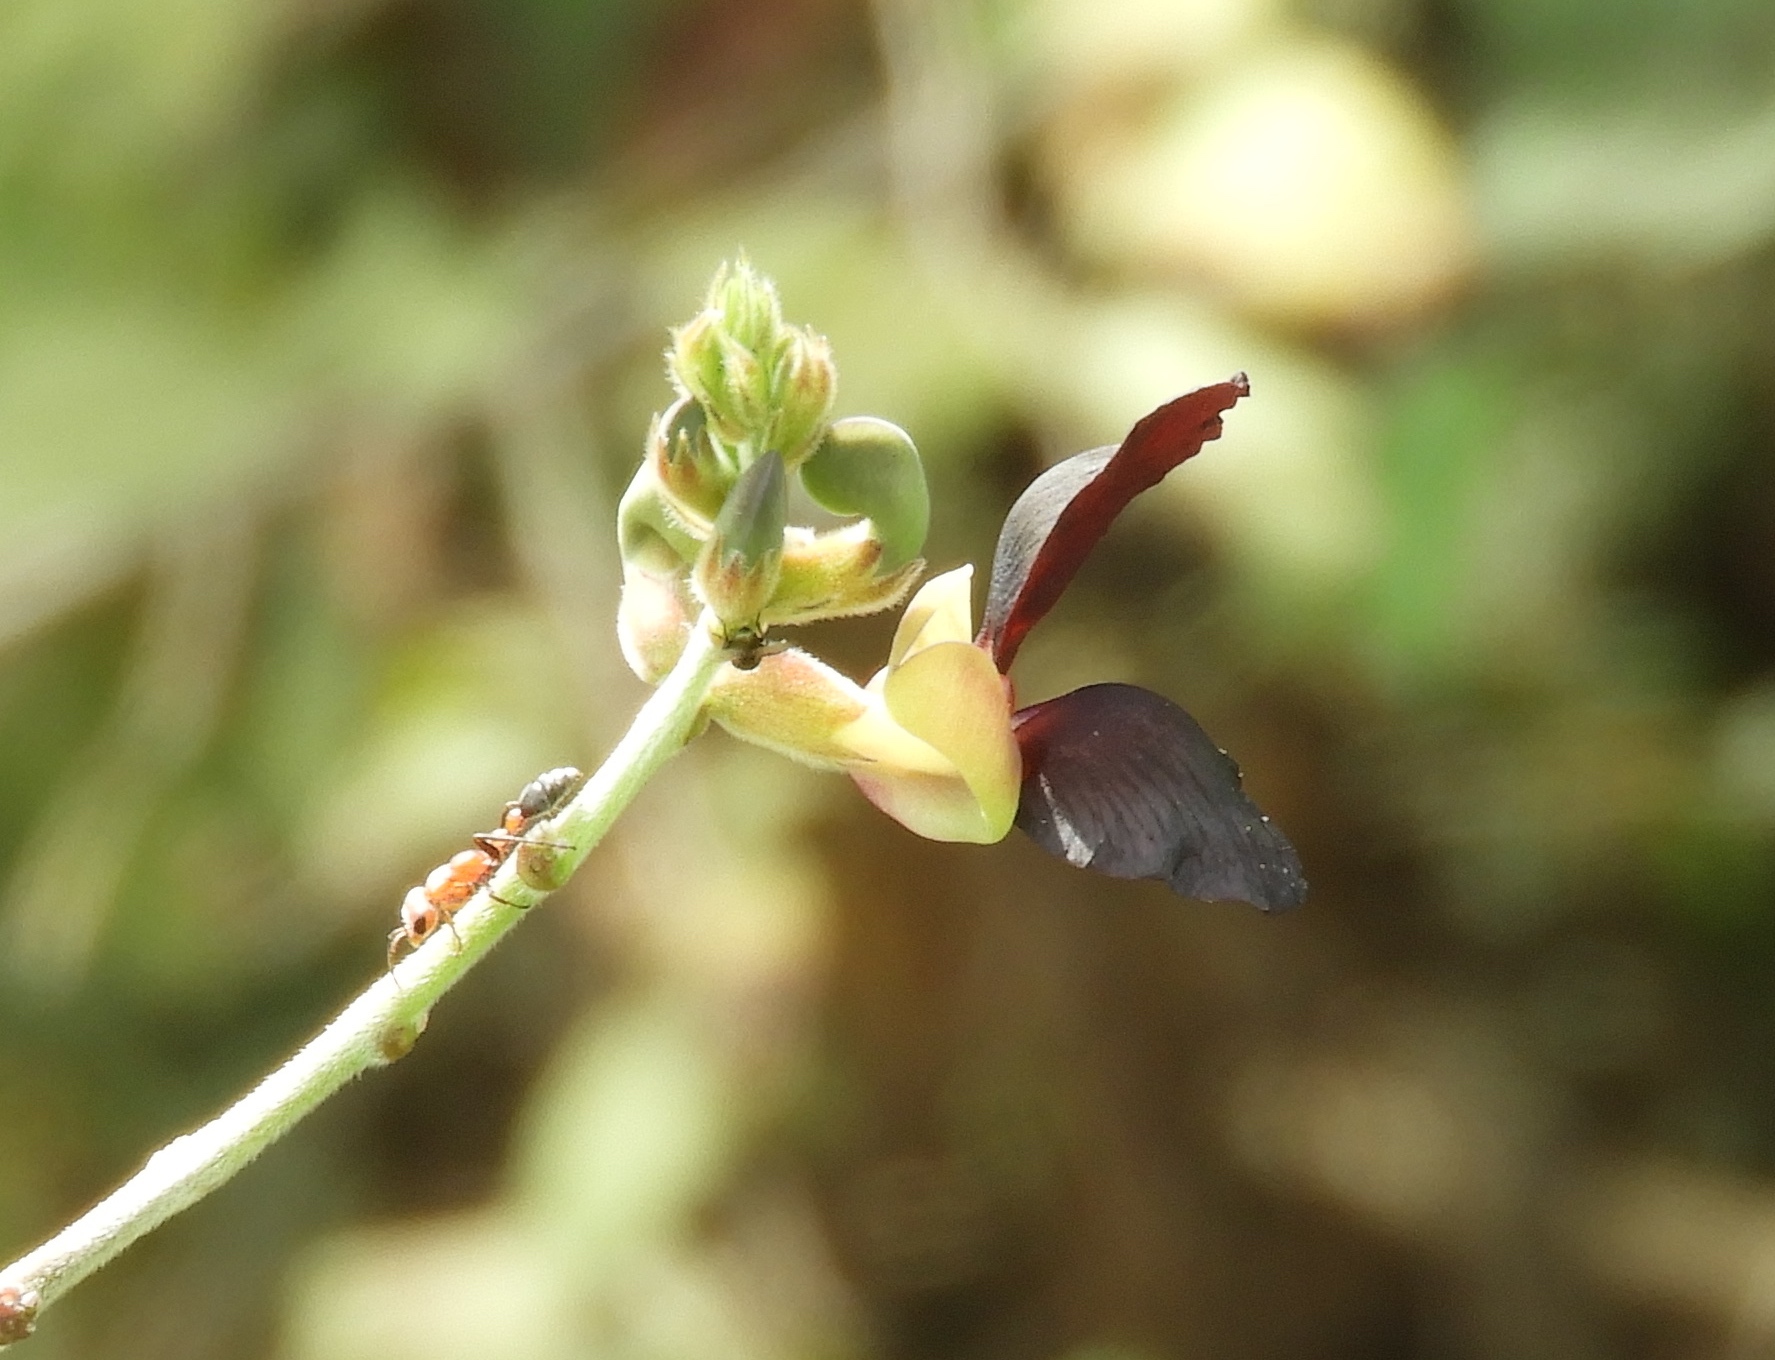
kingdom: Plantae
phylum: Tracheophyta
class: Magnoliopsida
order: Fabales
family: Fabaceae
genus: Macroptilium
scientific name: Macroptilium atropurpureum
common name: Purple bushbean
